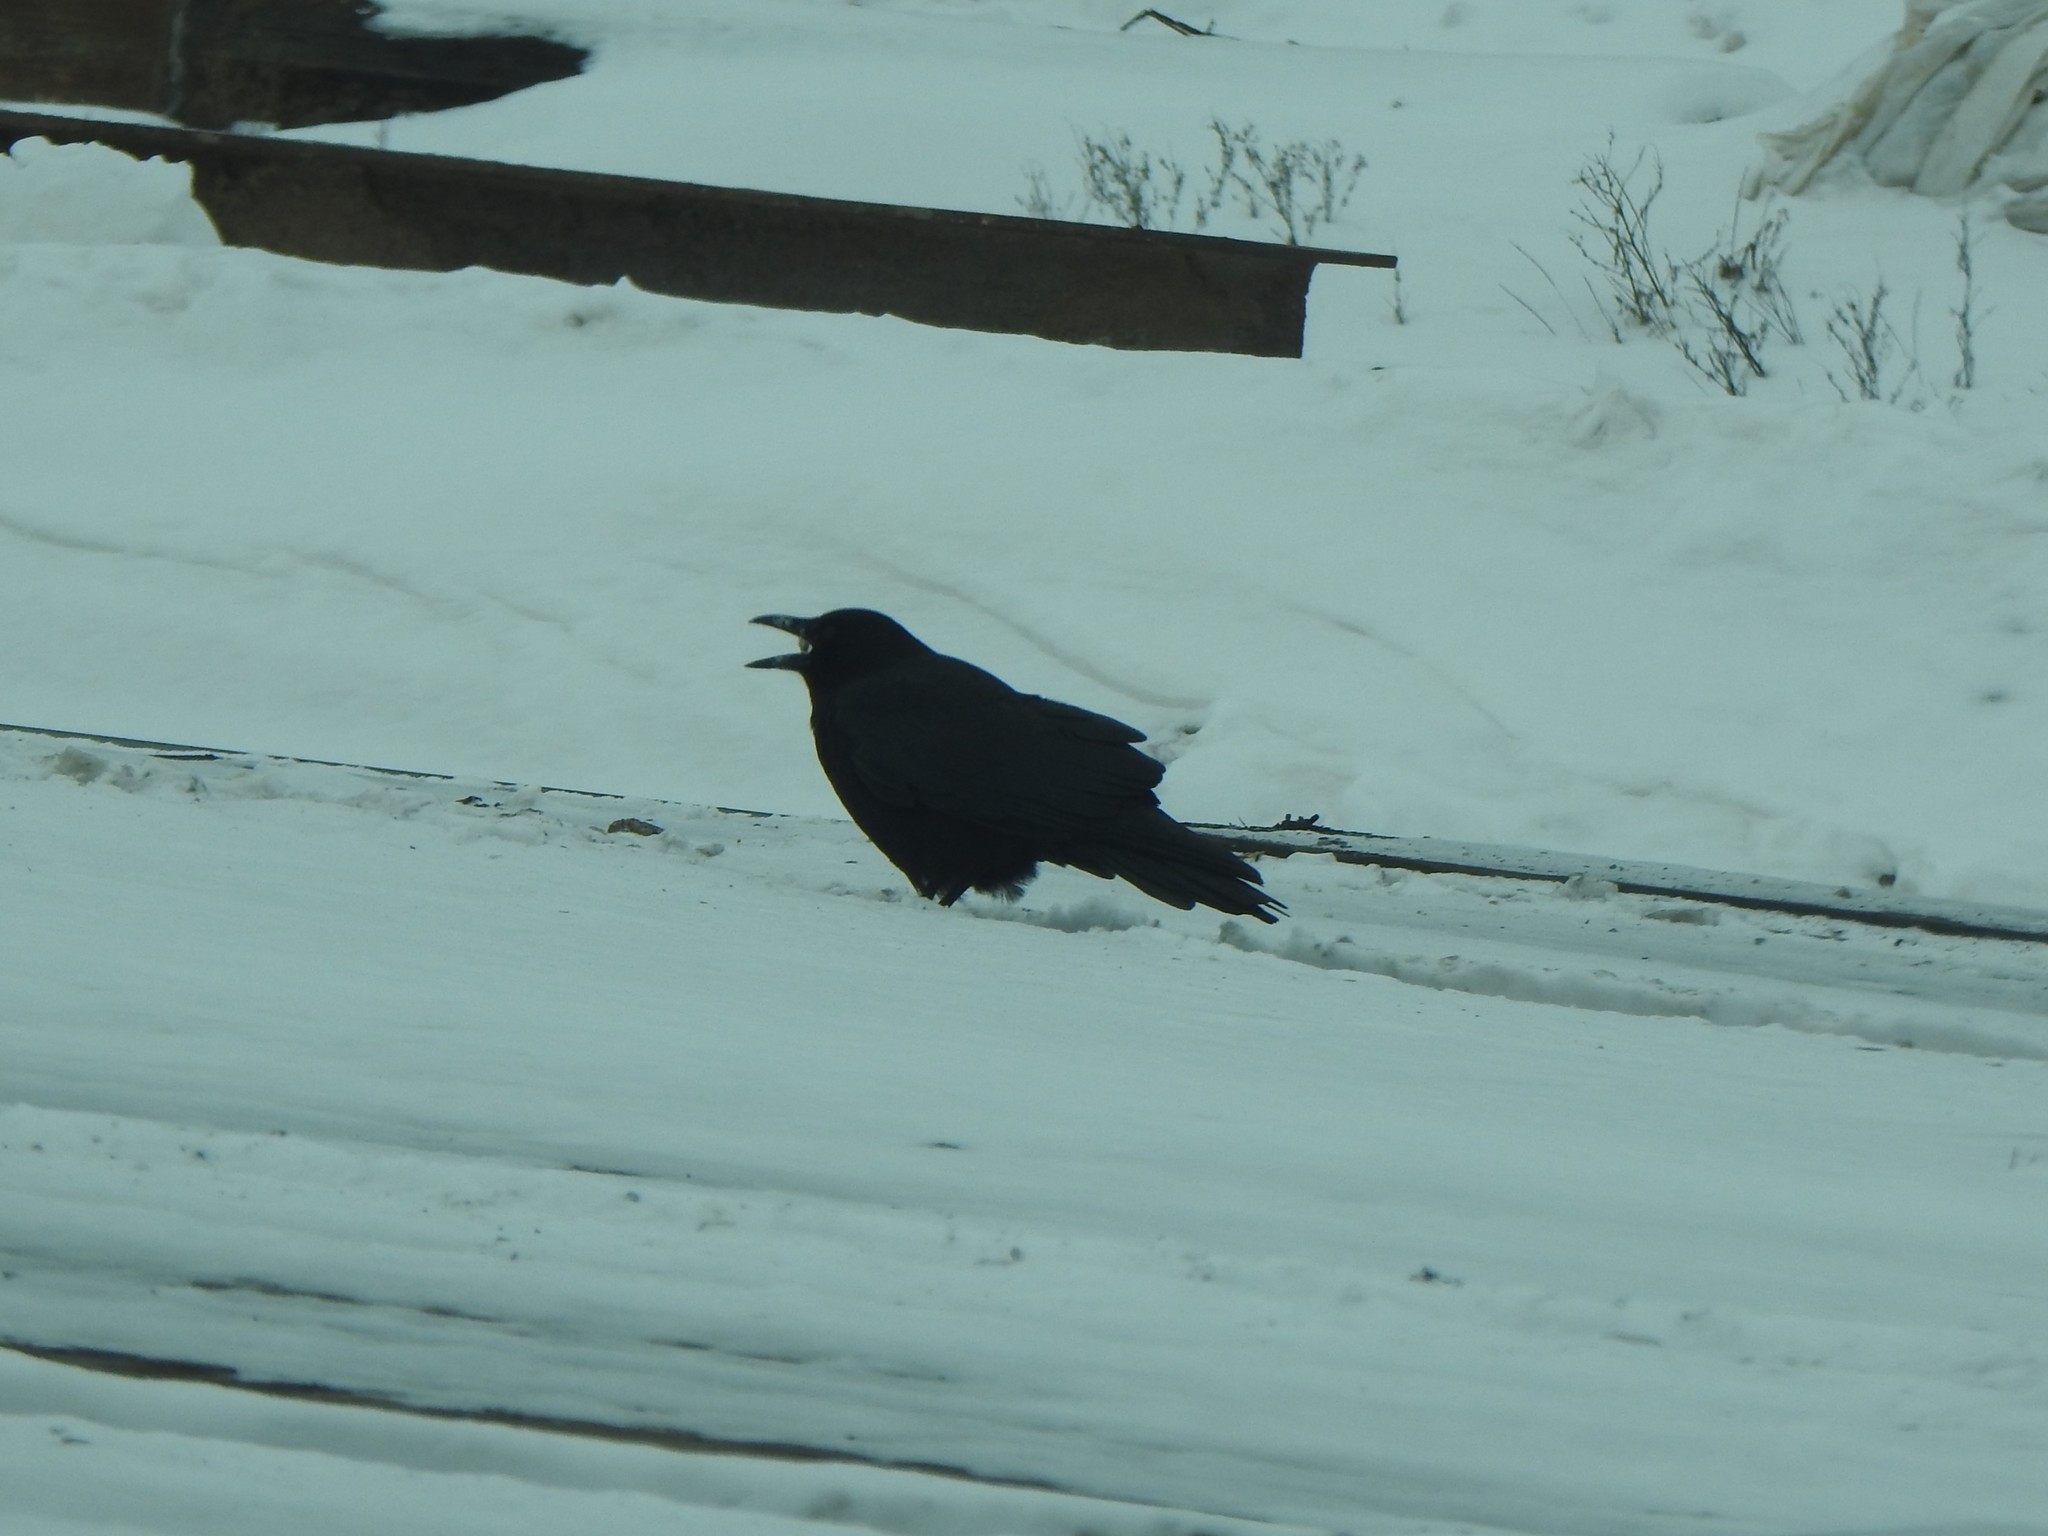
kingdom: Animalia
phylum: Chordata
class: Aves
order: Passeriformes
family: Corvidae
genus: Corvus
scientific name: Corvus corax
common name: Common raven
